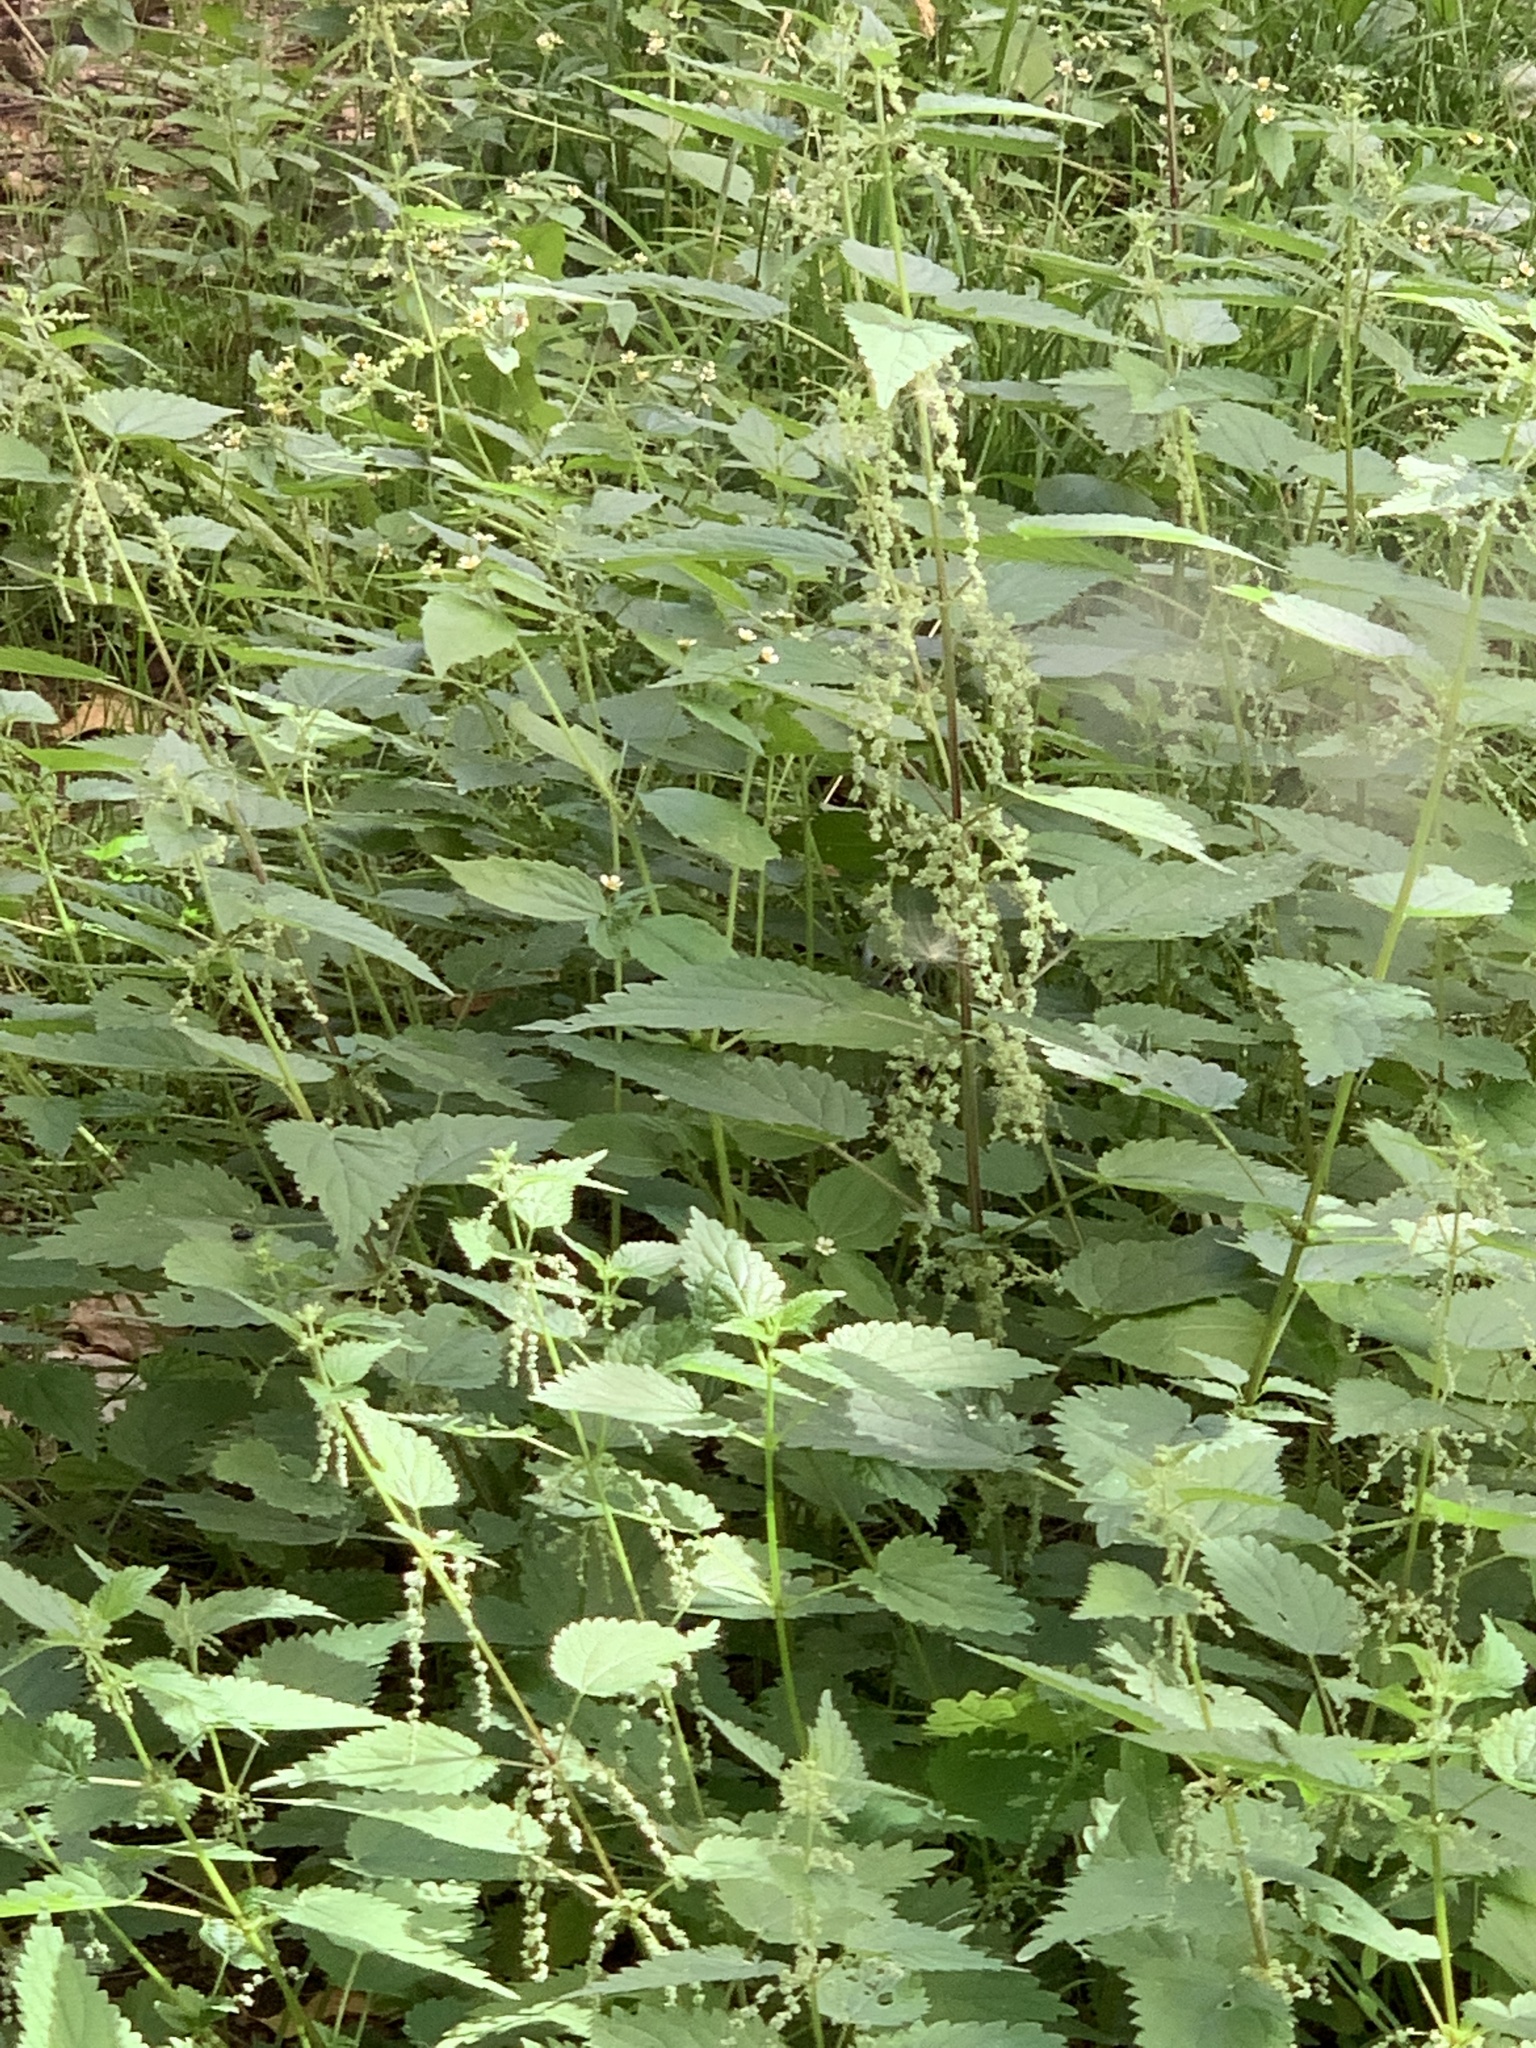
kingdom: Plantae
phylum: Tracheophyta
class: Magnoliopsida
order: Rosales
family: Urticaceae
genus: Urtica
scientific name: Urtica dioica
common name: Common nettle
